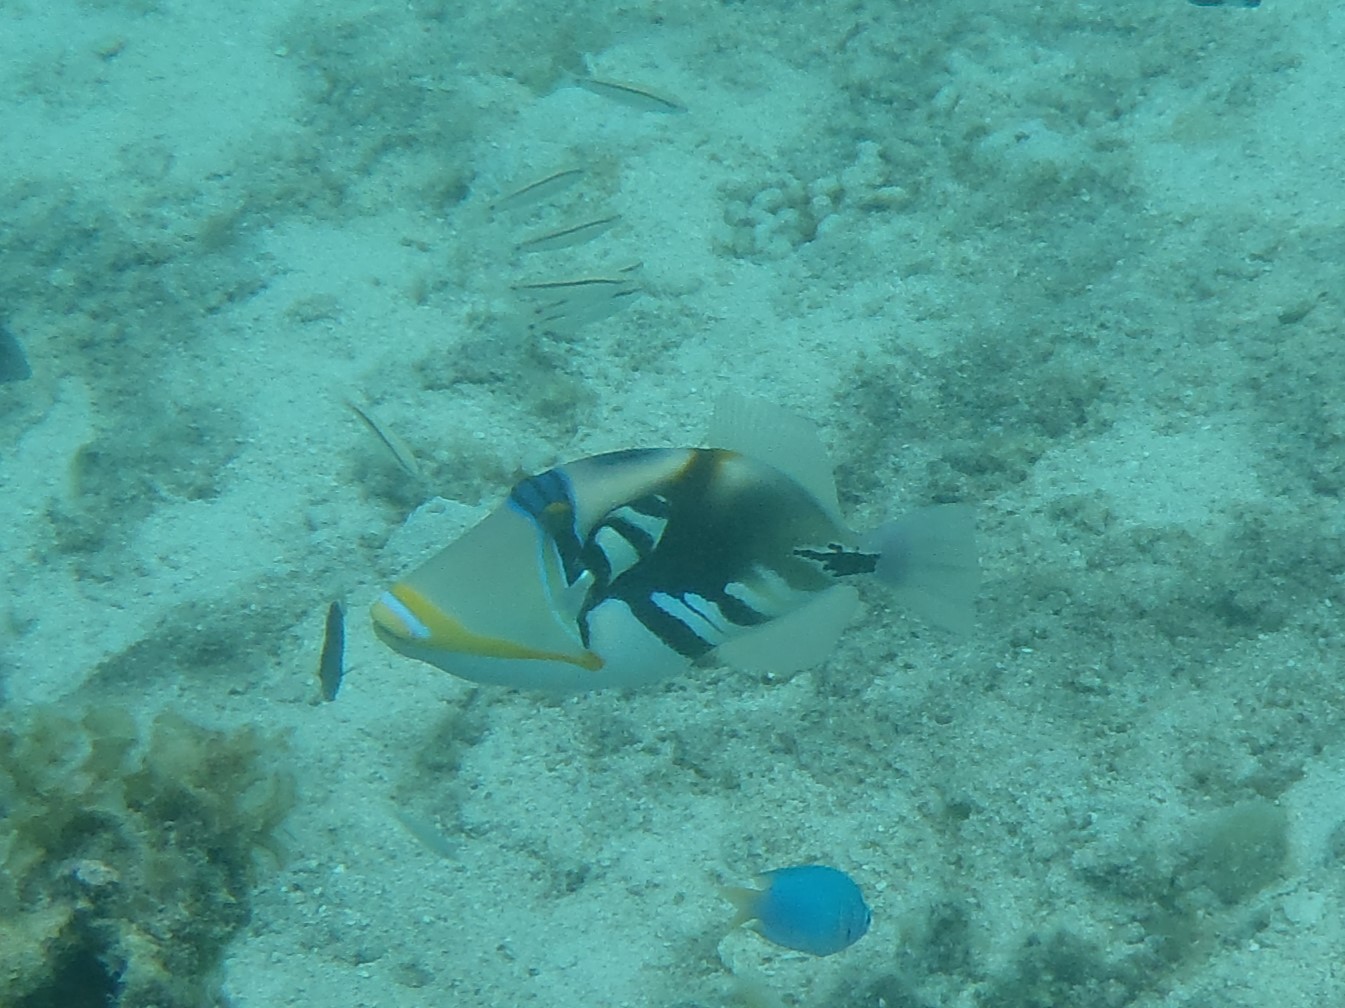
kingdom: Animalia
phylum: Chordata
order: Tetraodontiformes
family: Balistidae
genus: Rhinecanthus
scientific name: Rhinecanthus aculeatus
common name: White-banded triggerfish
